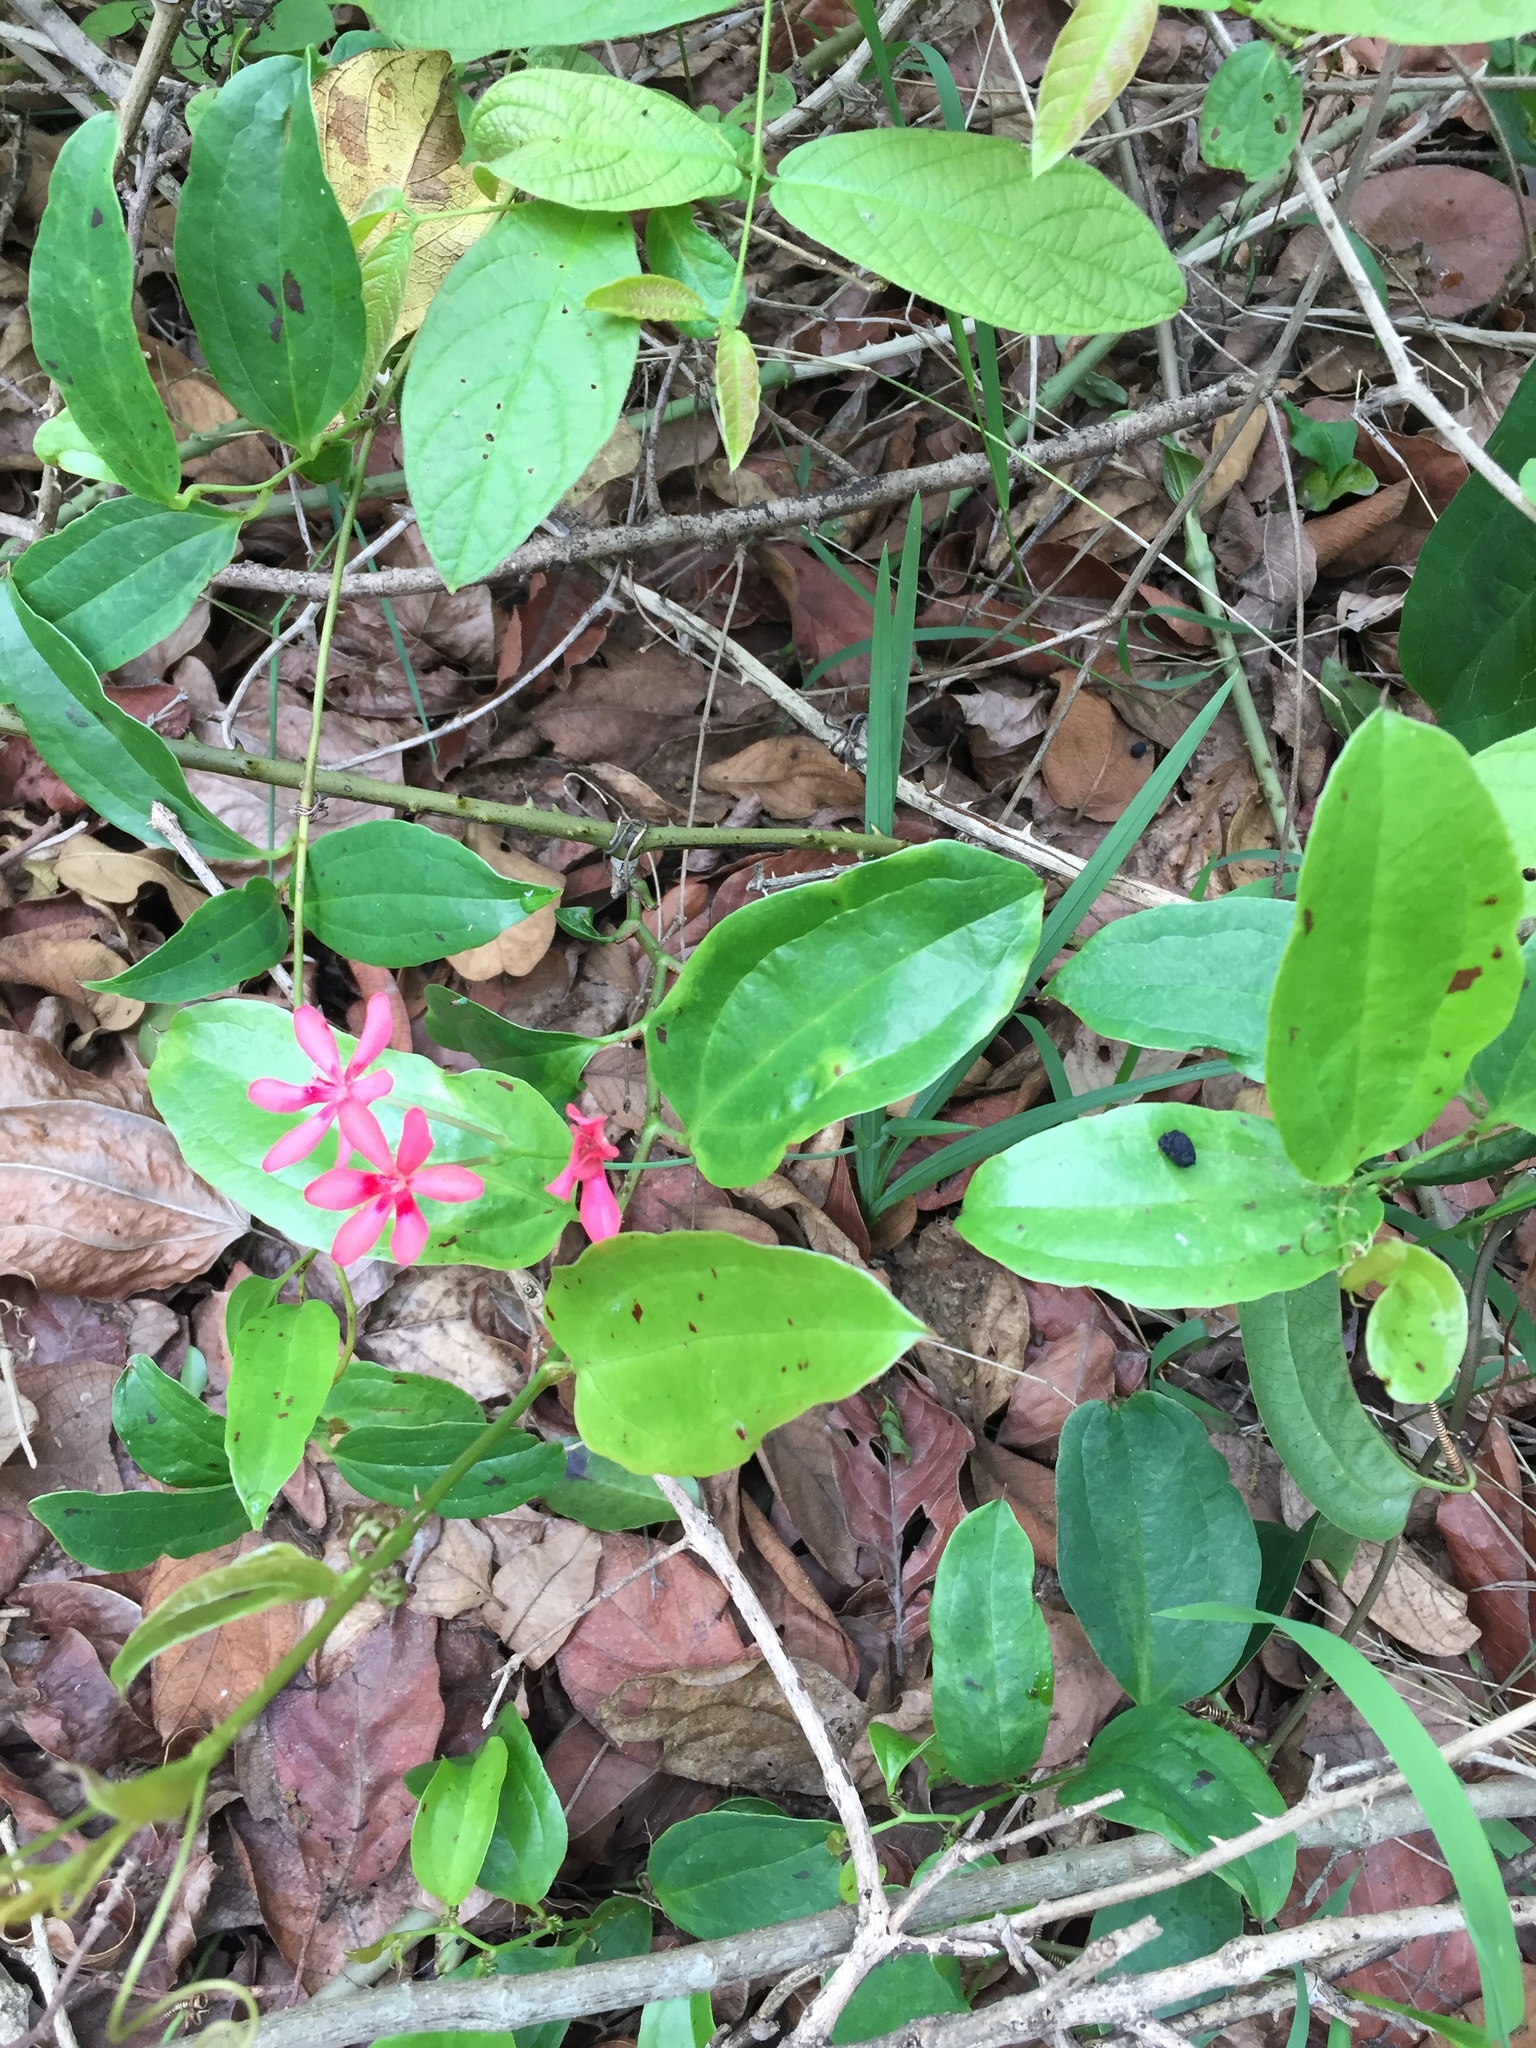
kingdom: Plantae
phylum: Tracheophyta
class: Liliopsida
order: Asparagales
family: Iridaceae
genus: Freesia
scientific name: Freesia laxa
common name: False freesia
